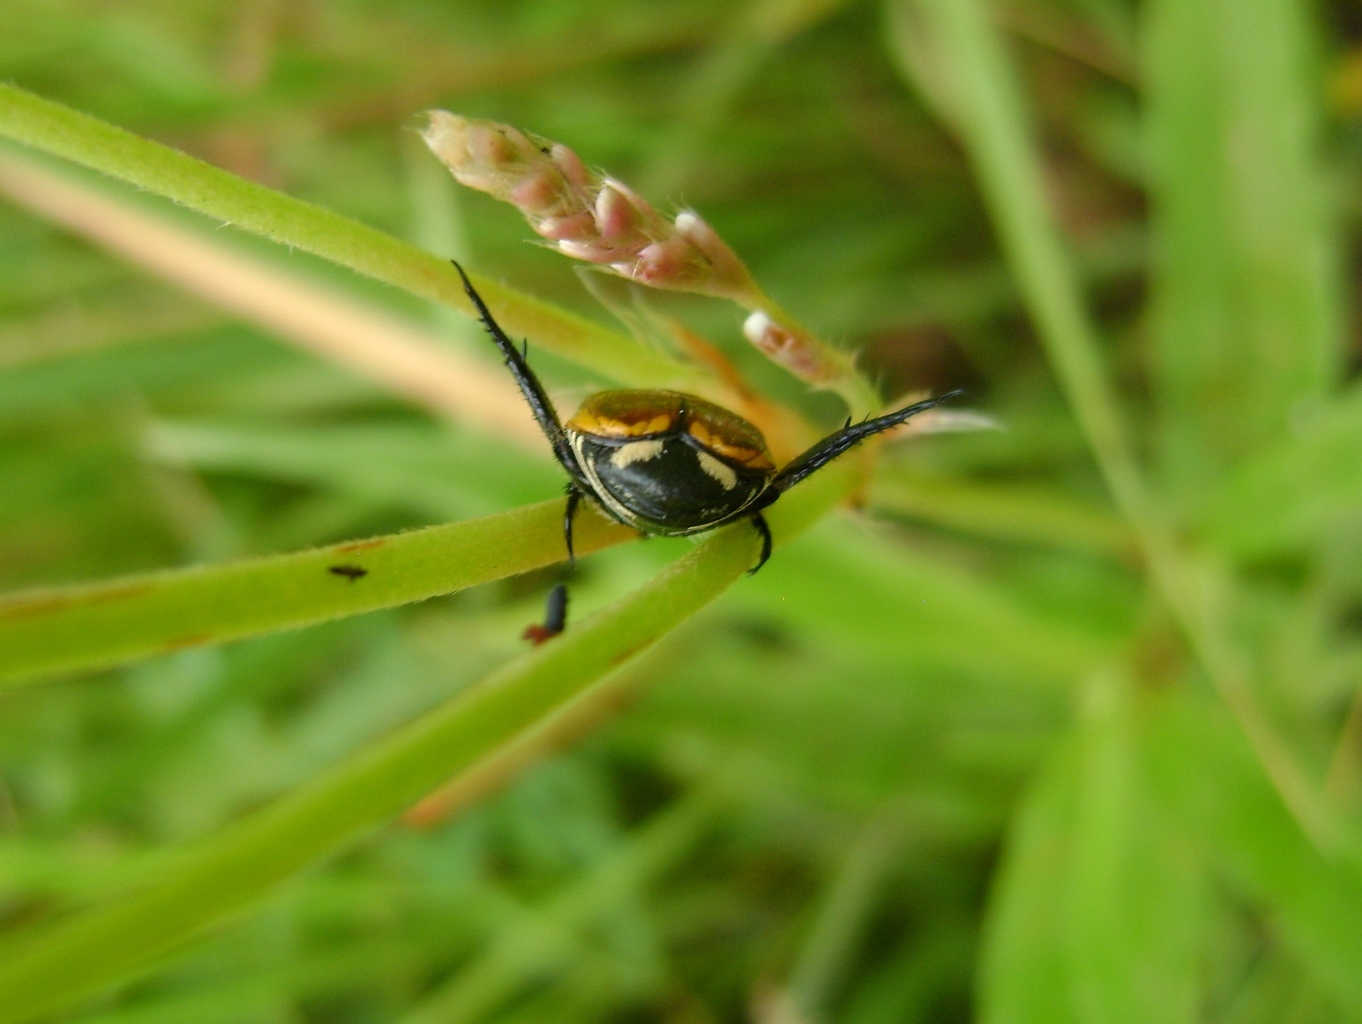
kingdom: Animalia
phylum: Arthropoda
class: Insecta
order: Coleoptera
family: Scarabaeidae
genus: Popillia
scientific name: Popillia bipunctata
